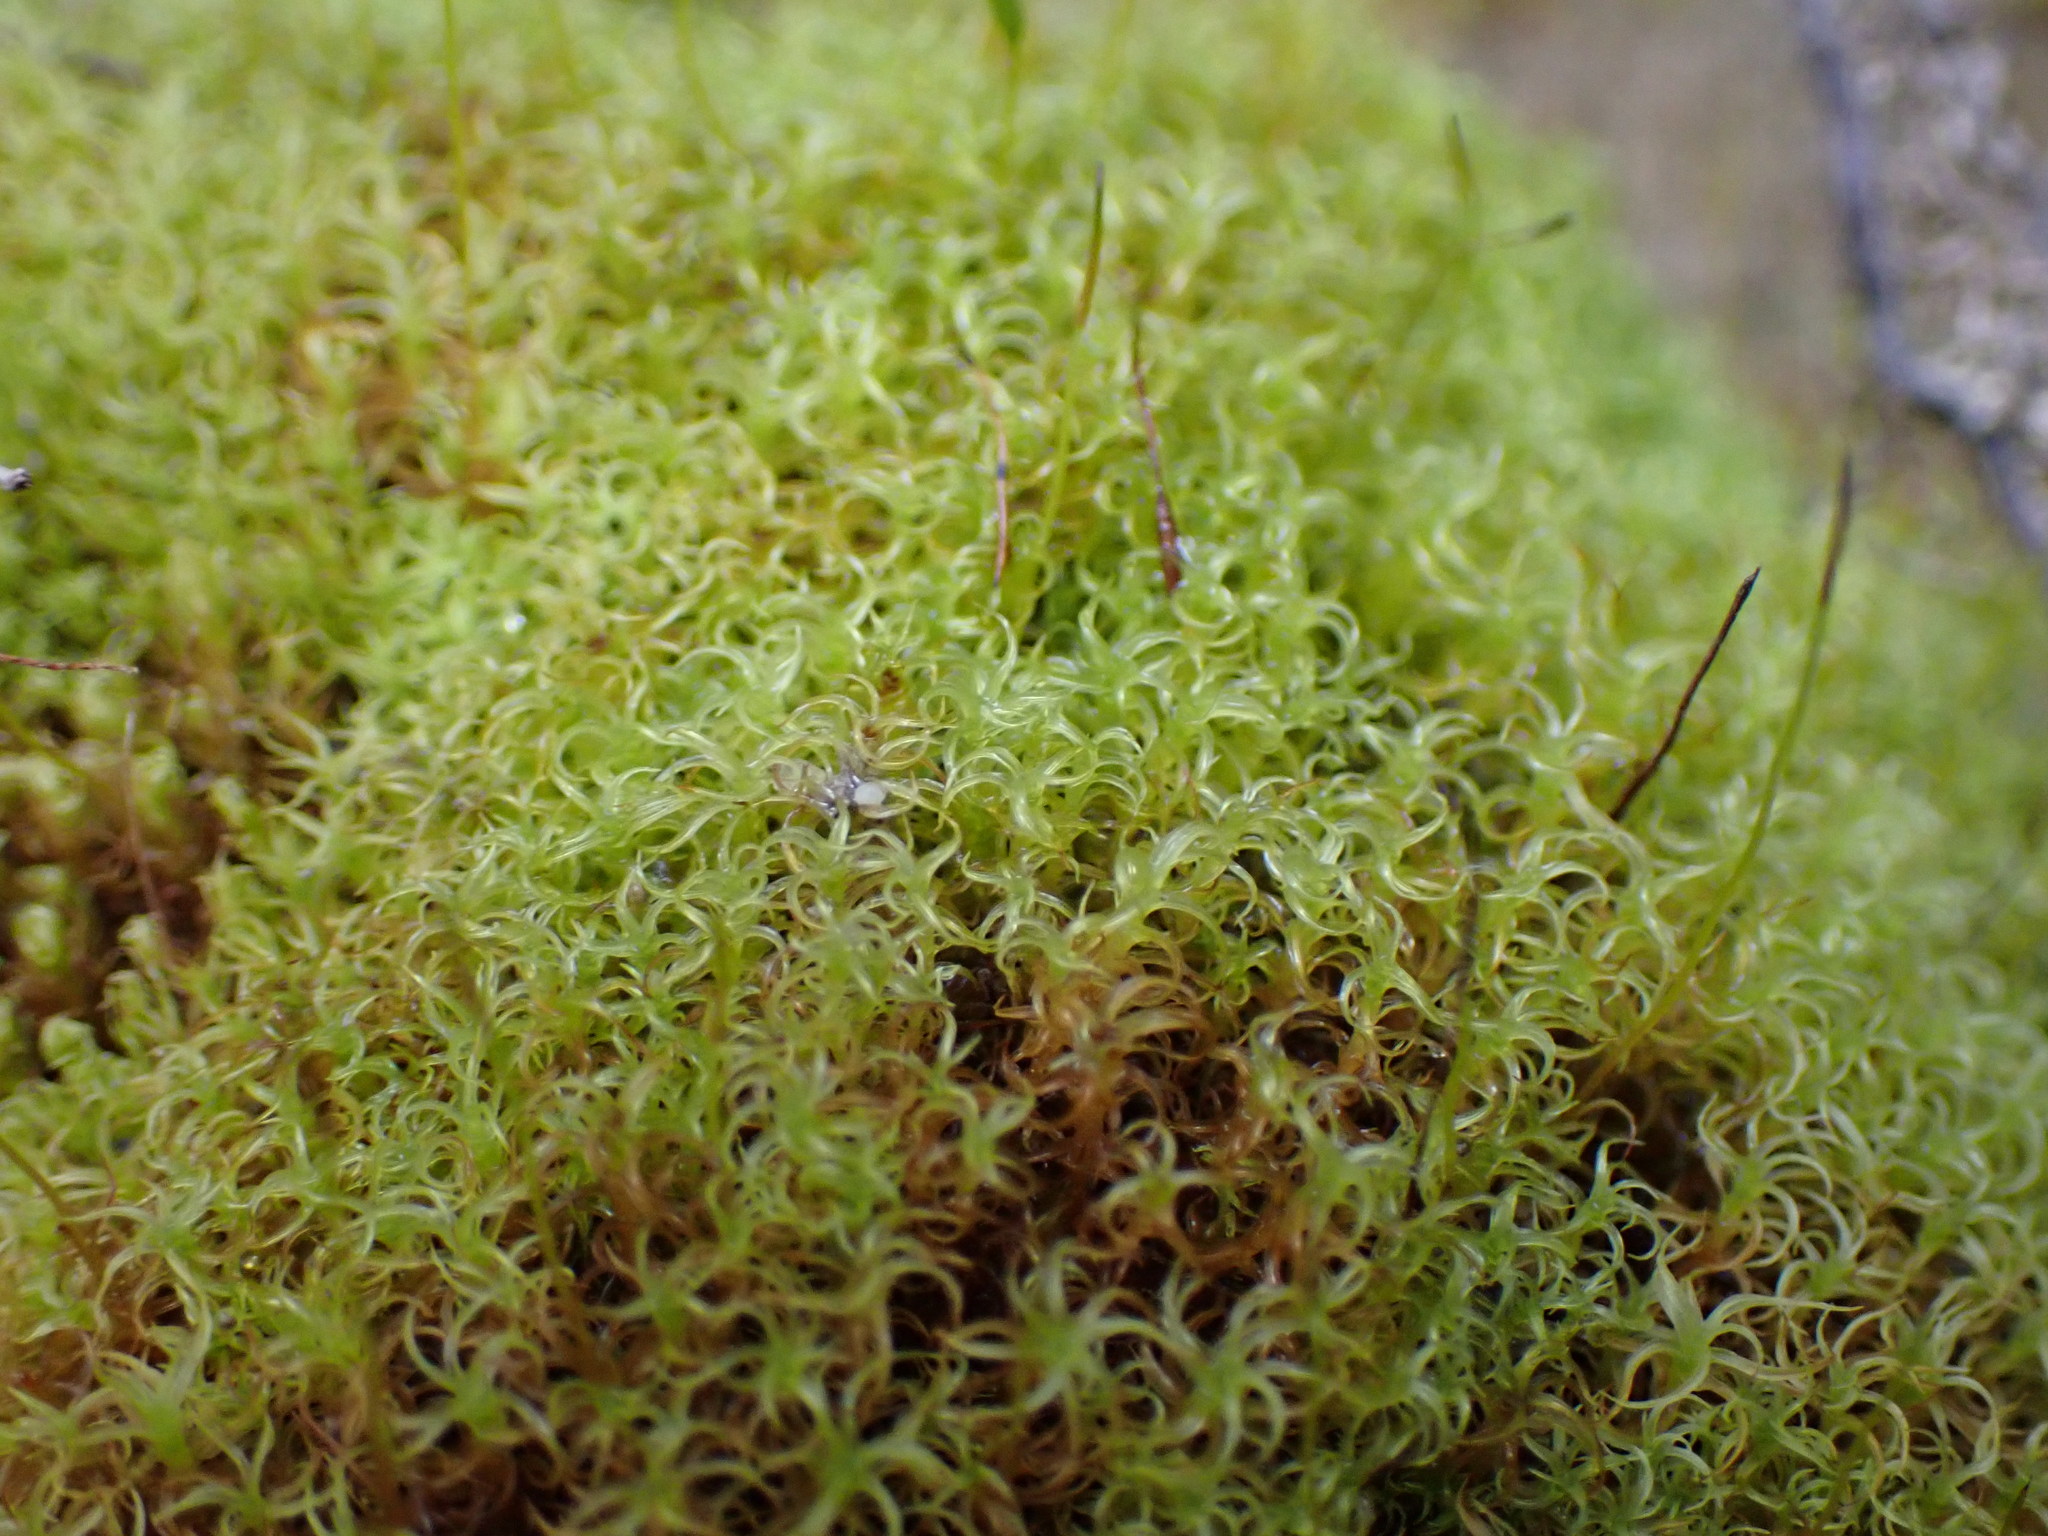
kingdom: Plantae
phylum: Bryophyta
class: Bryopsida
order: Pottiales
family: Pottiaceae
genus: Vinealobryum
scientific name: Vinealobryum insulanum
